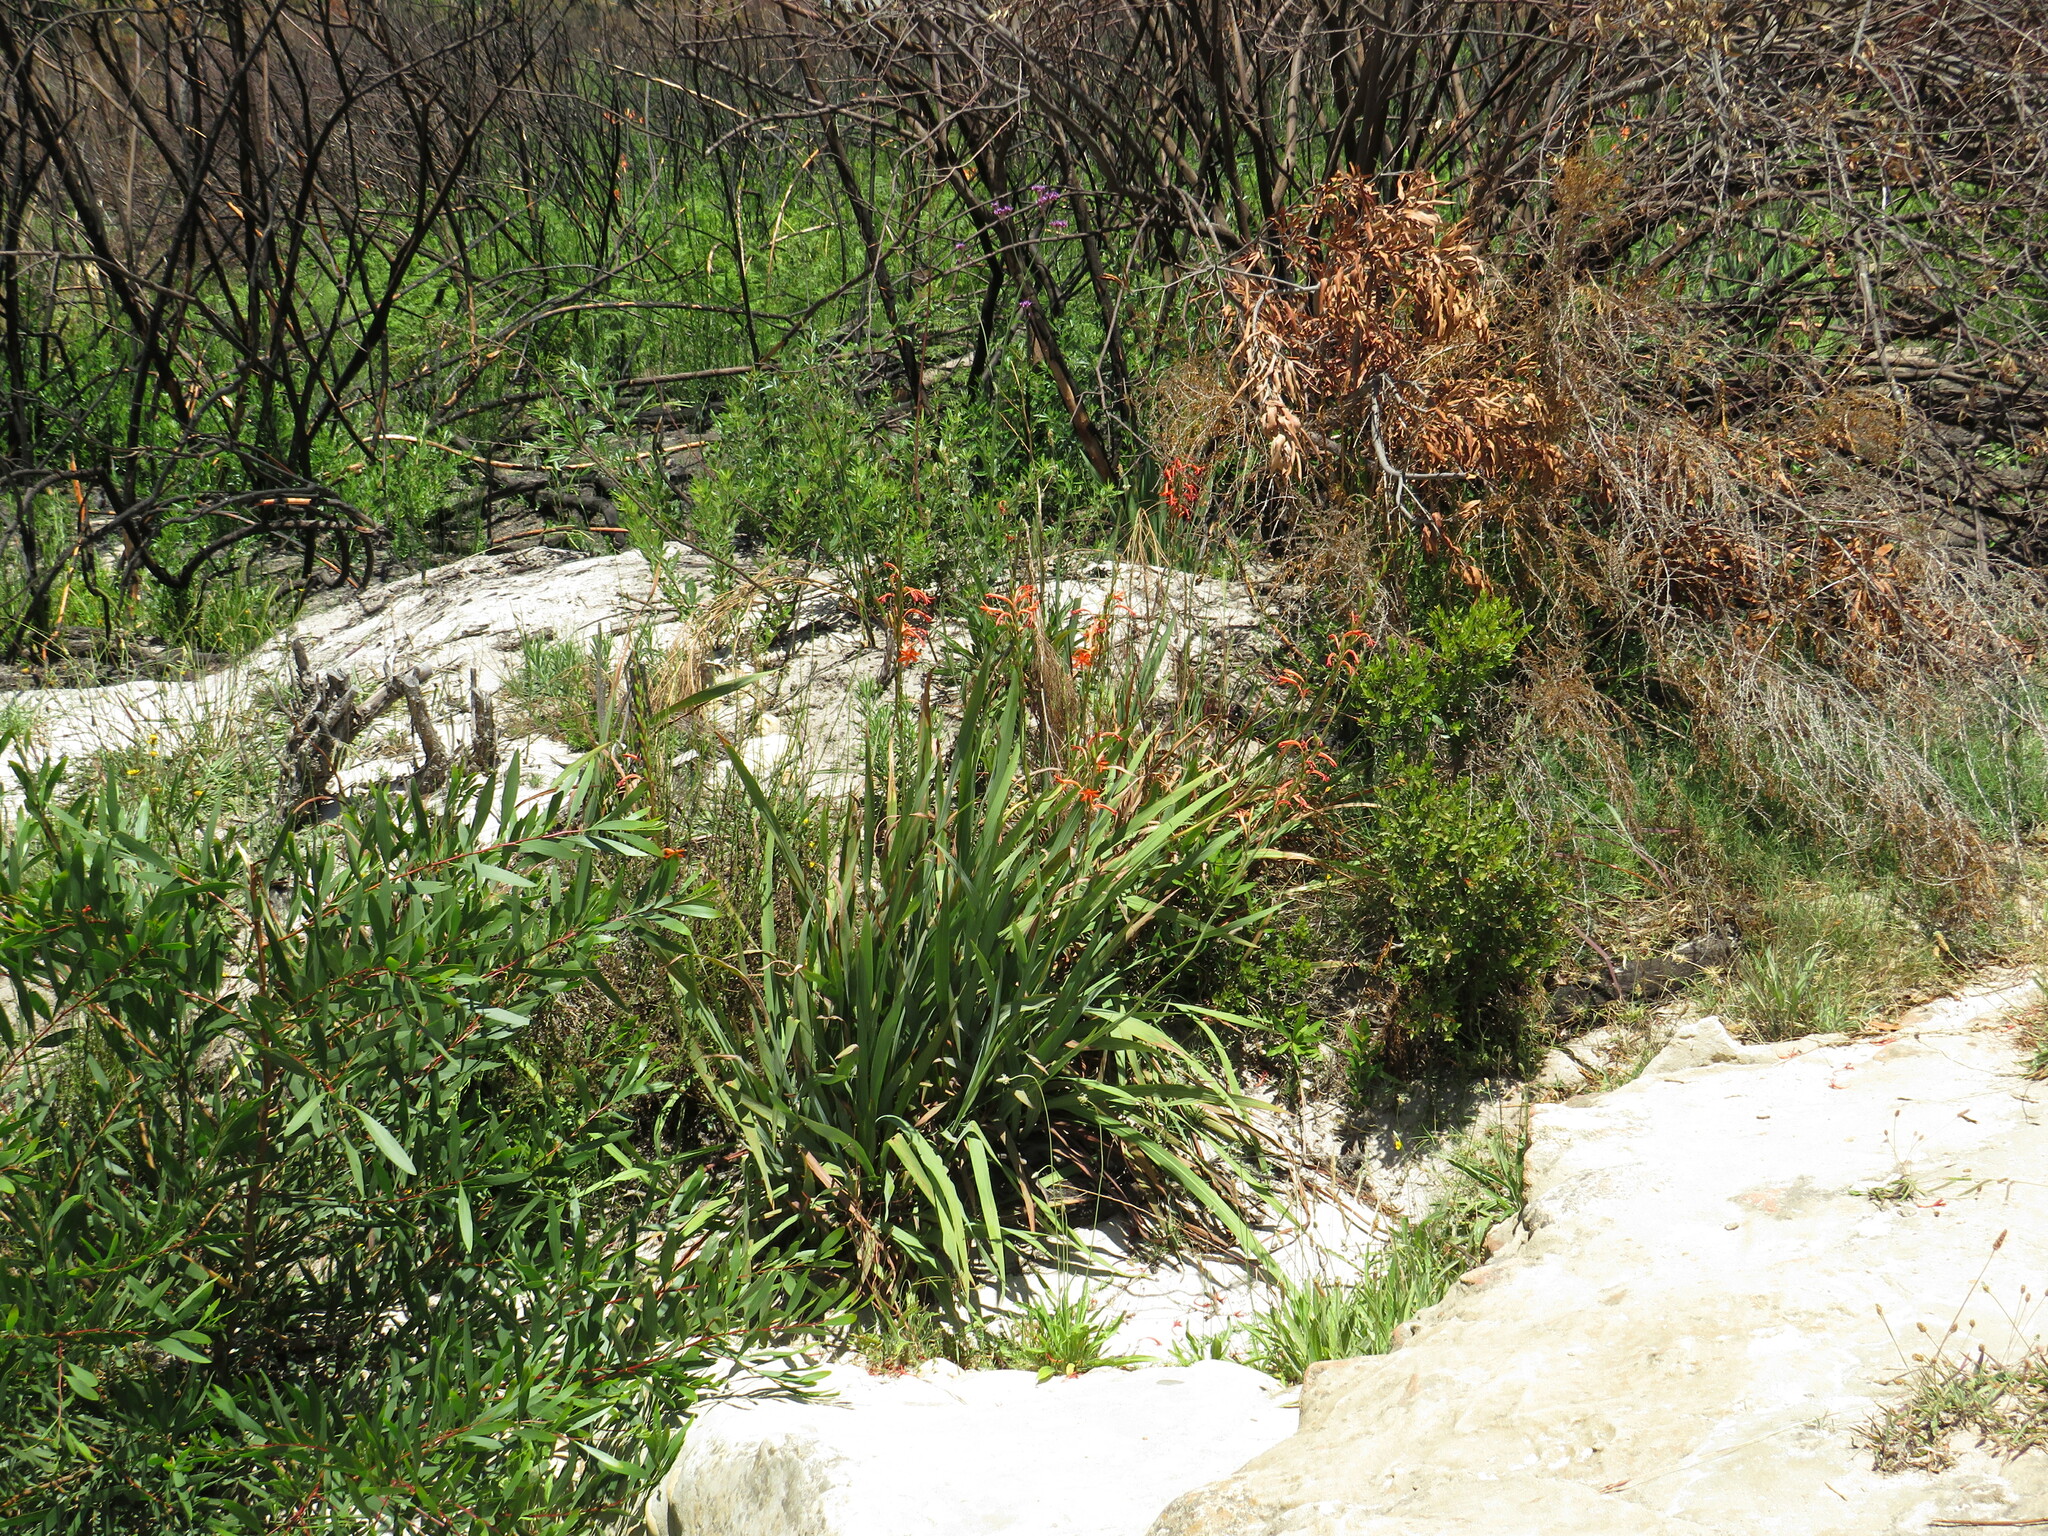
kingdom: Plantae
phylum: Tracheophyta
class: Magnoliopsida
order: Fabales
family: Fabaceae
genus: Acacia
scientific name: Acacia longifolia
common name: Sydney golden wattle
